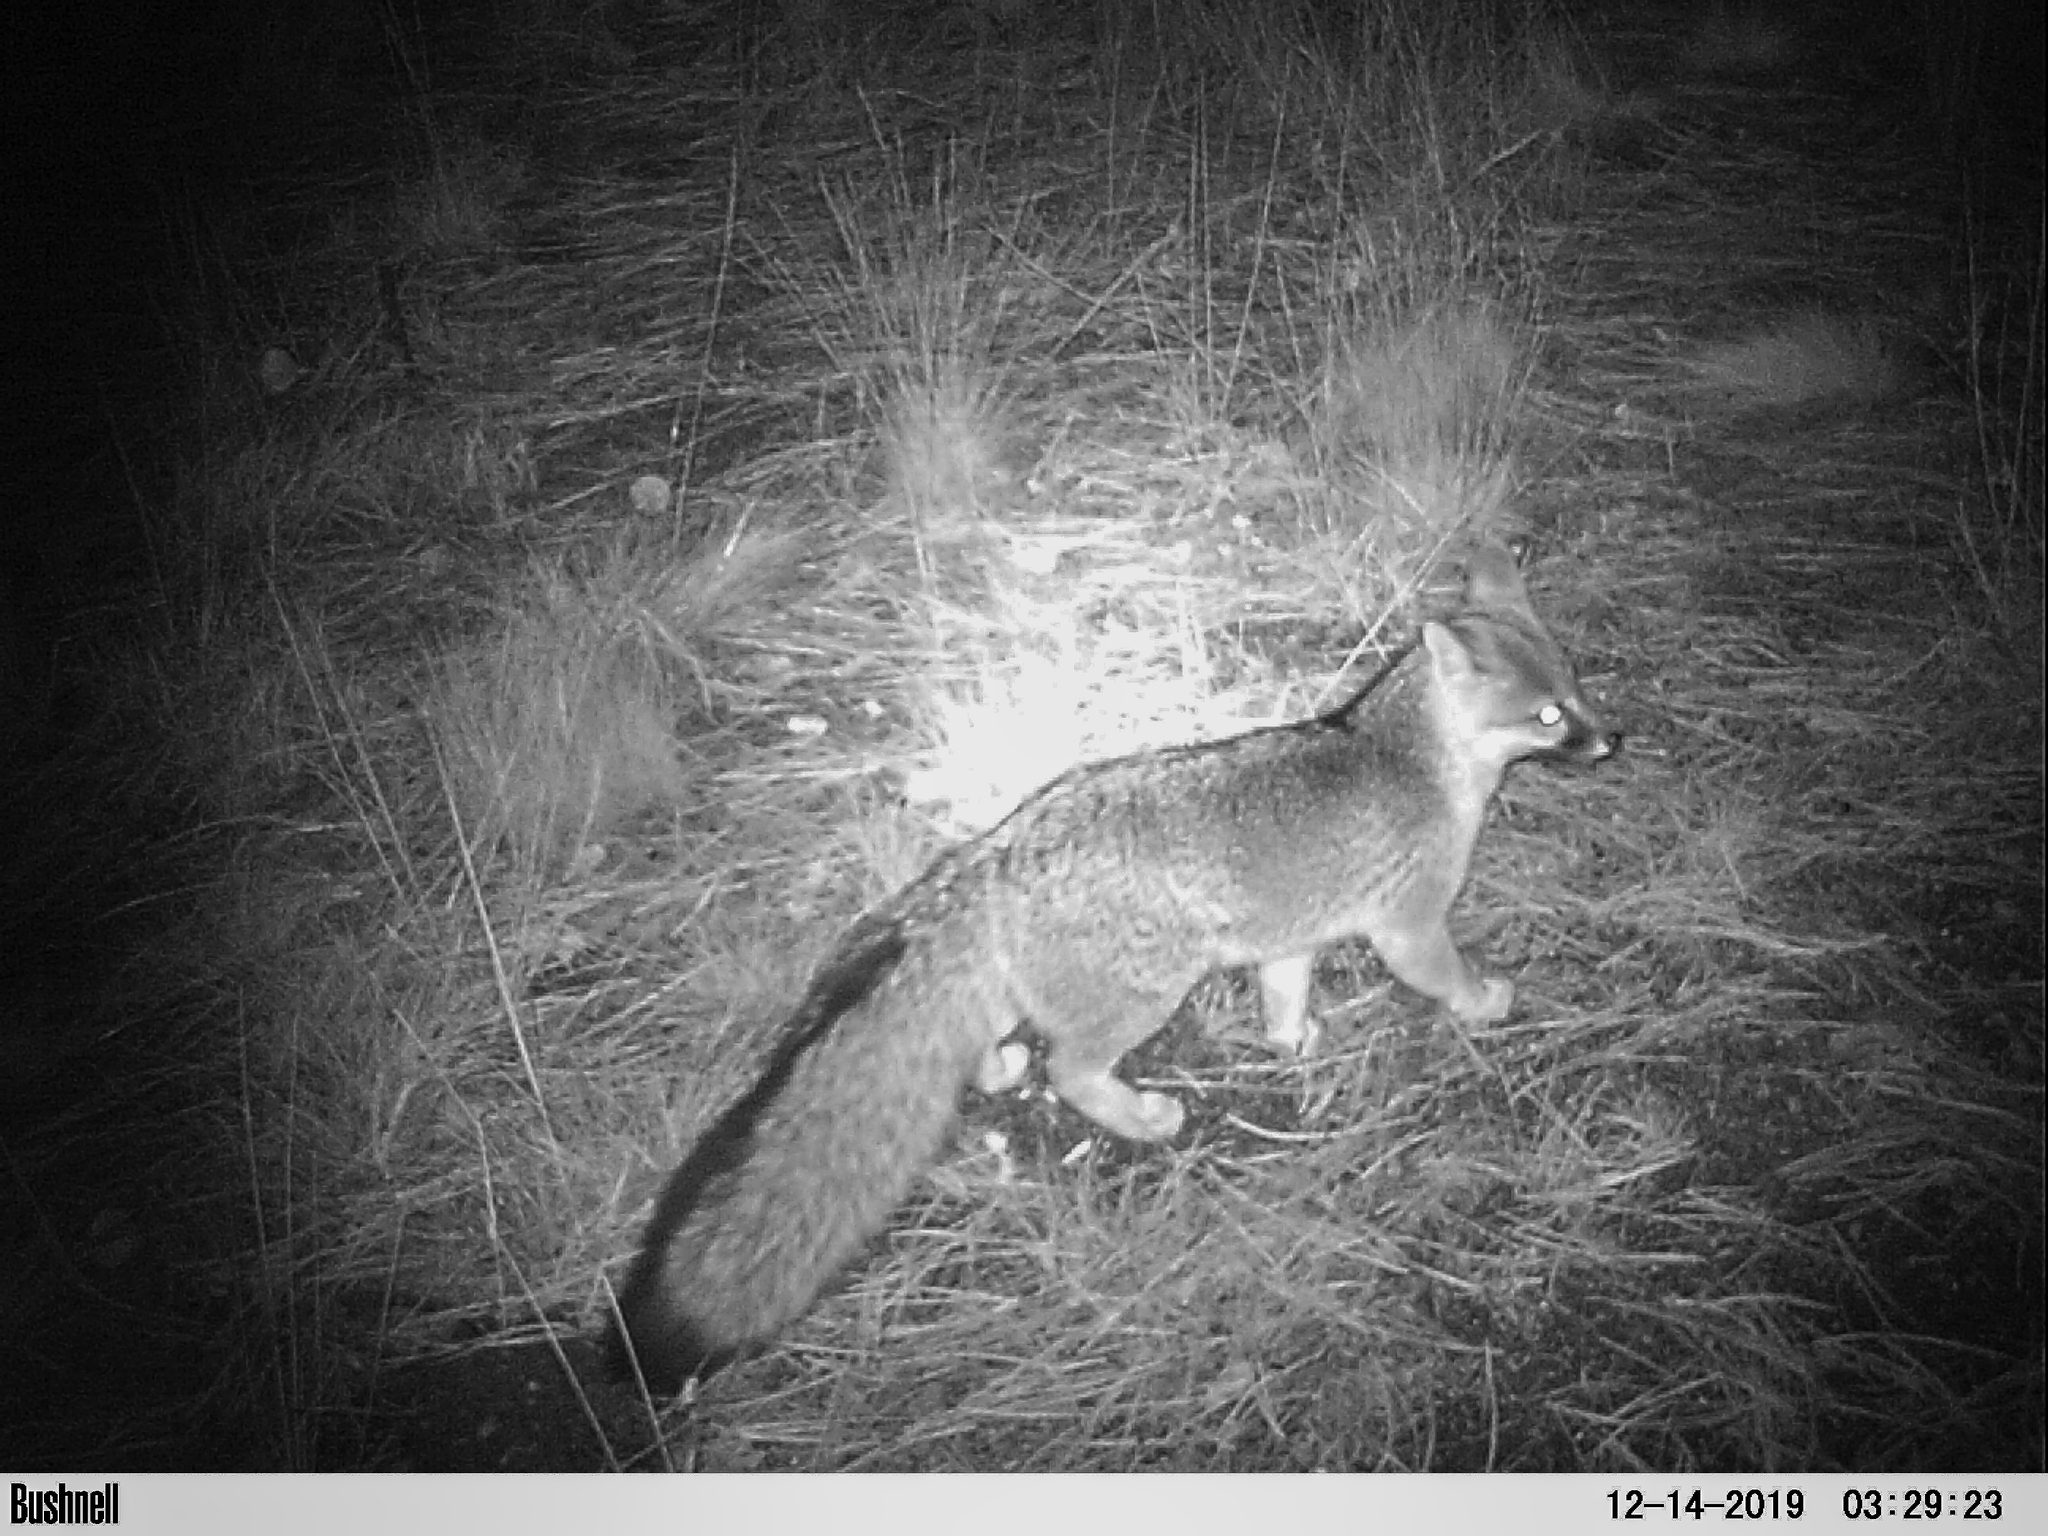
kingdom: Animalia
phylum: Chordata
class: Mammalia
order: Carnivora
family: Canidae
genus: Urocyon
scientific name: Urocyon cinereoargenteus
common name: Gray fox
